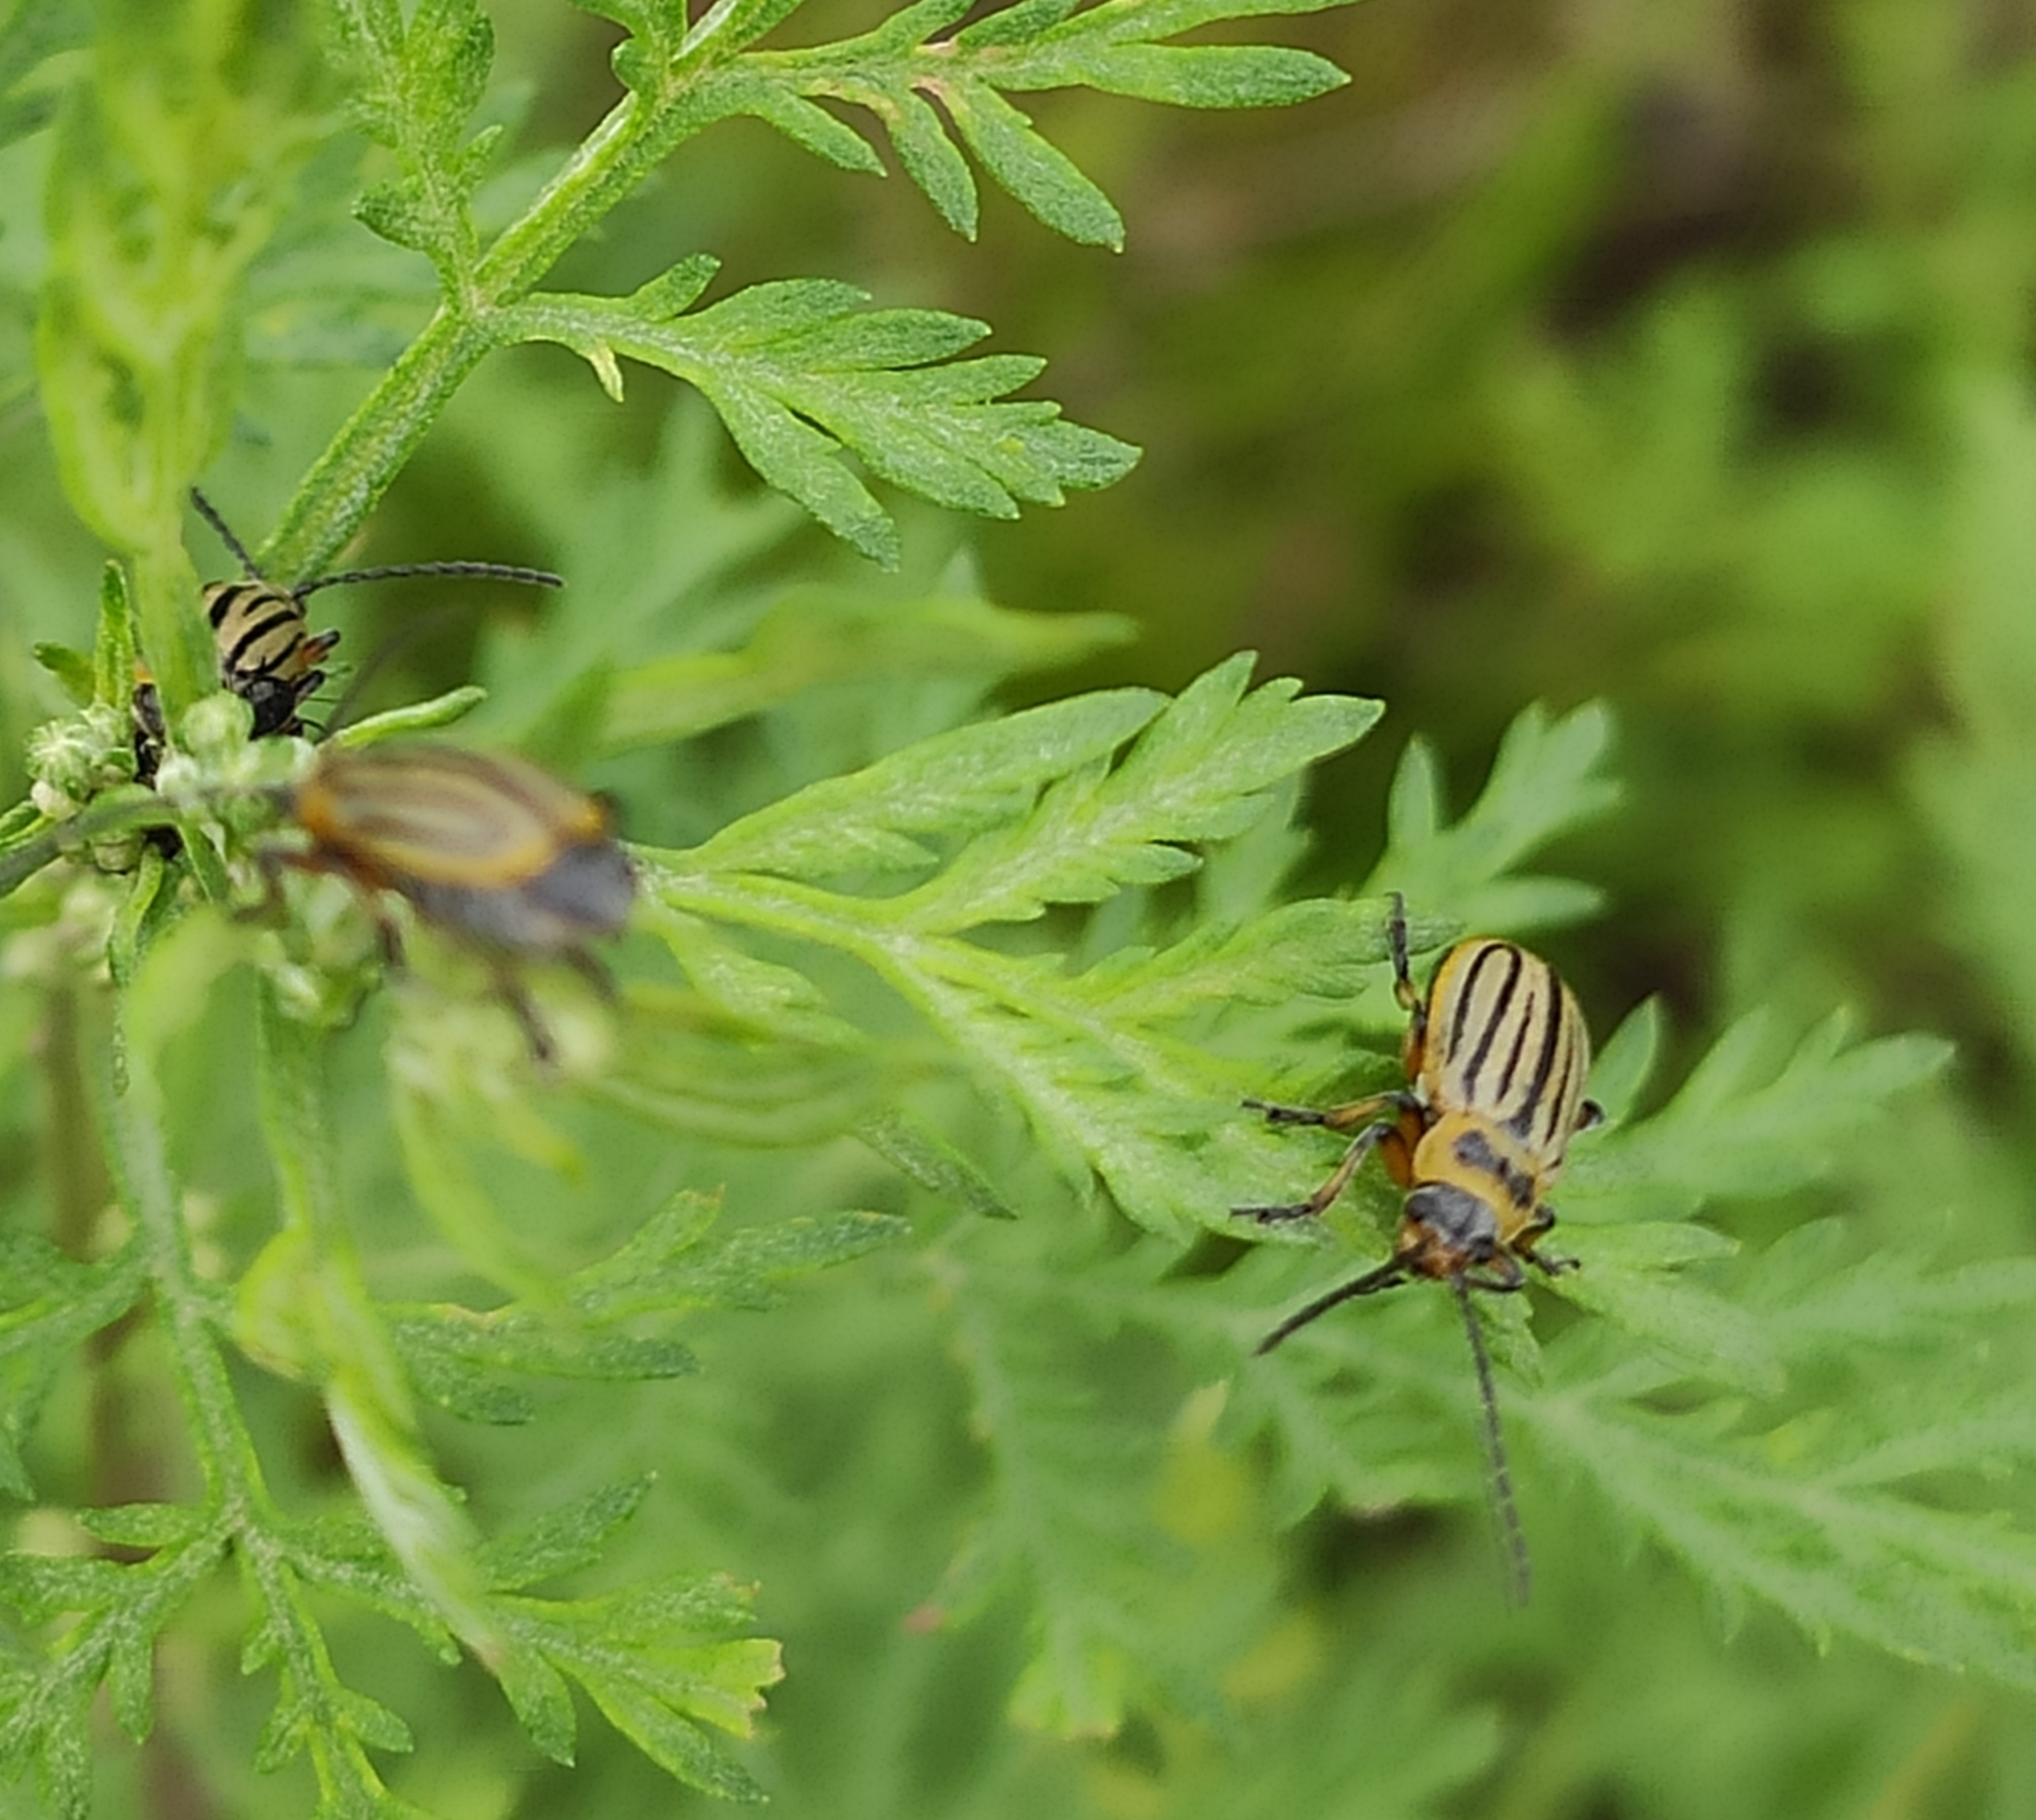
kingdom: Animalia
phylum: Arthropoda
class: Insecta
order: Coleoptera
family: Chrysomelidae
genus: Pallasiola
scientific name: Pallasiola absinthii
